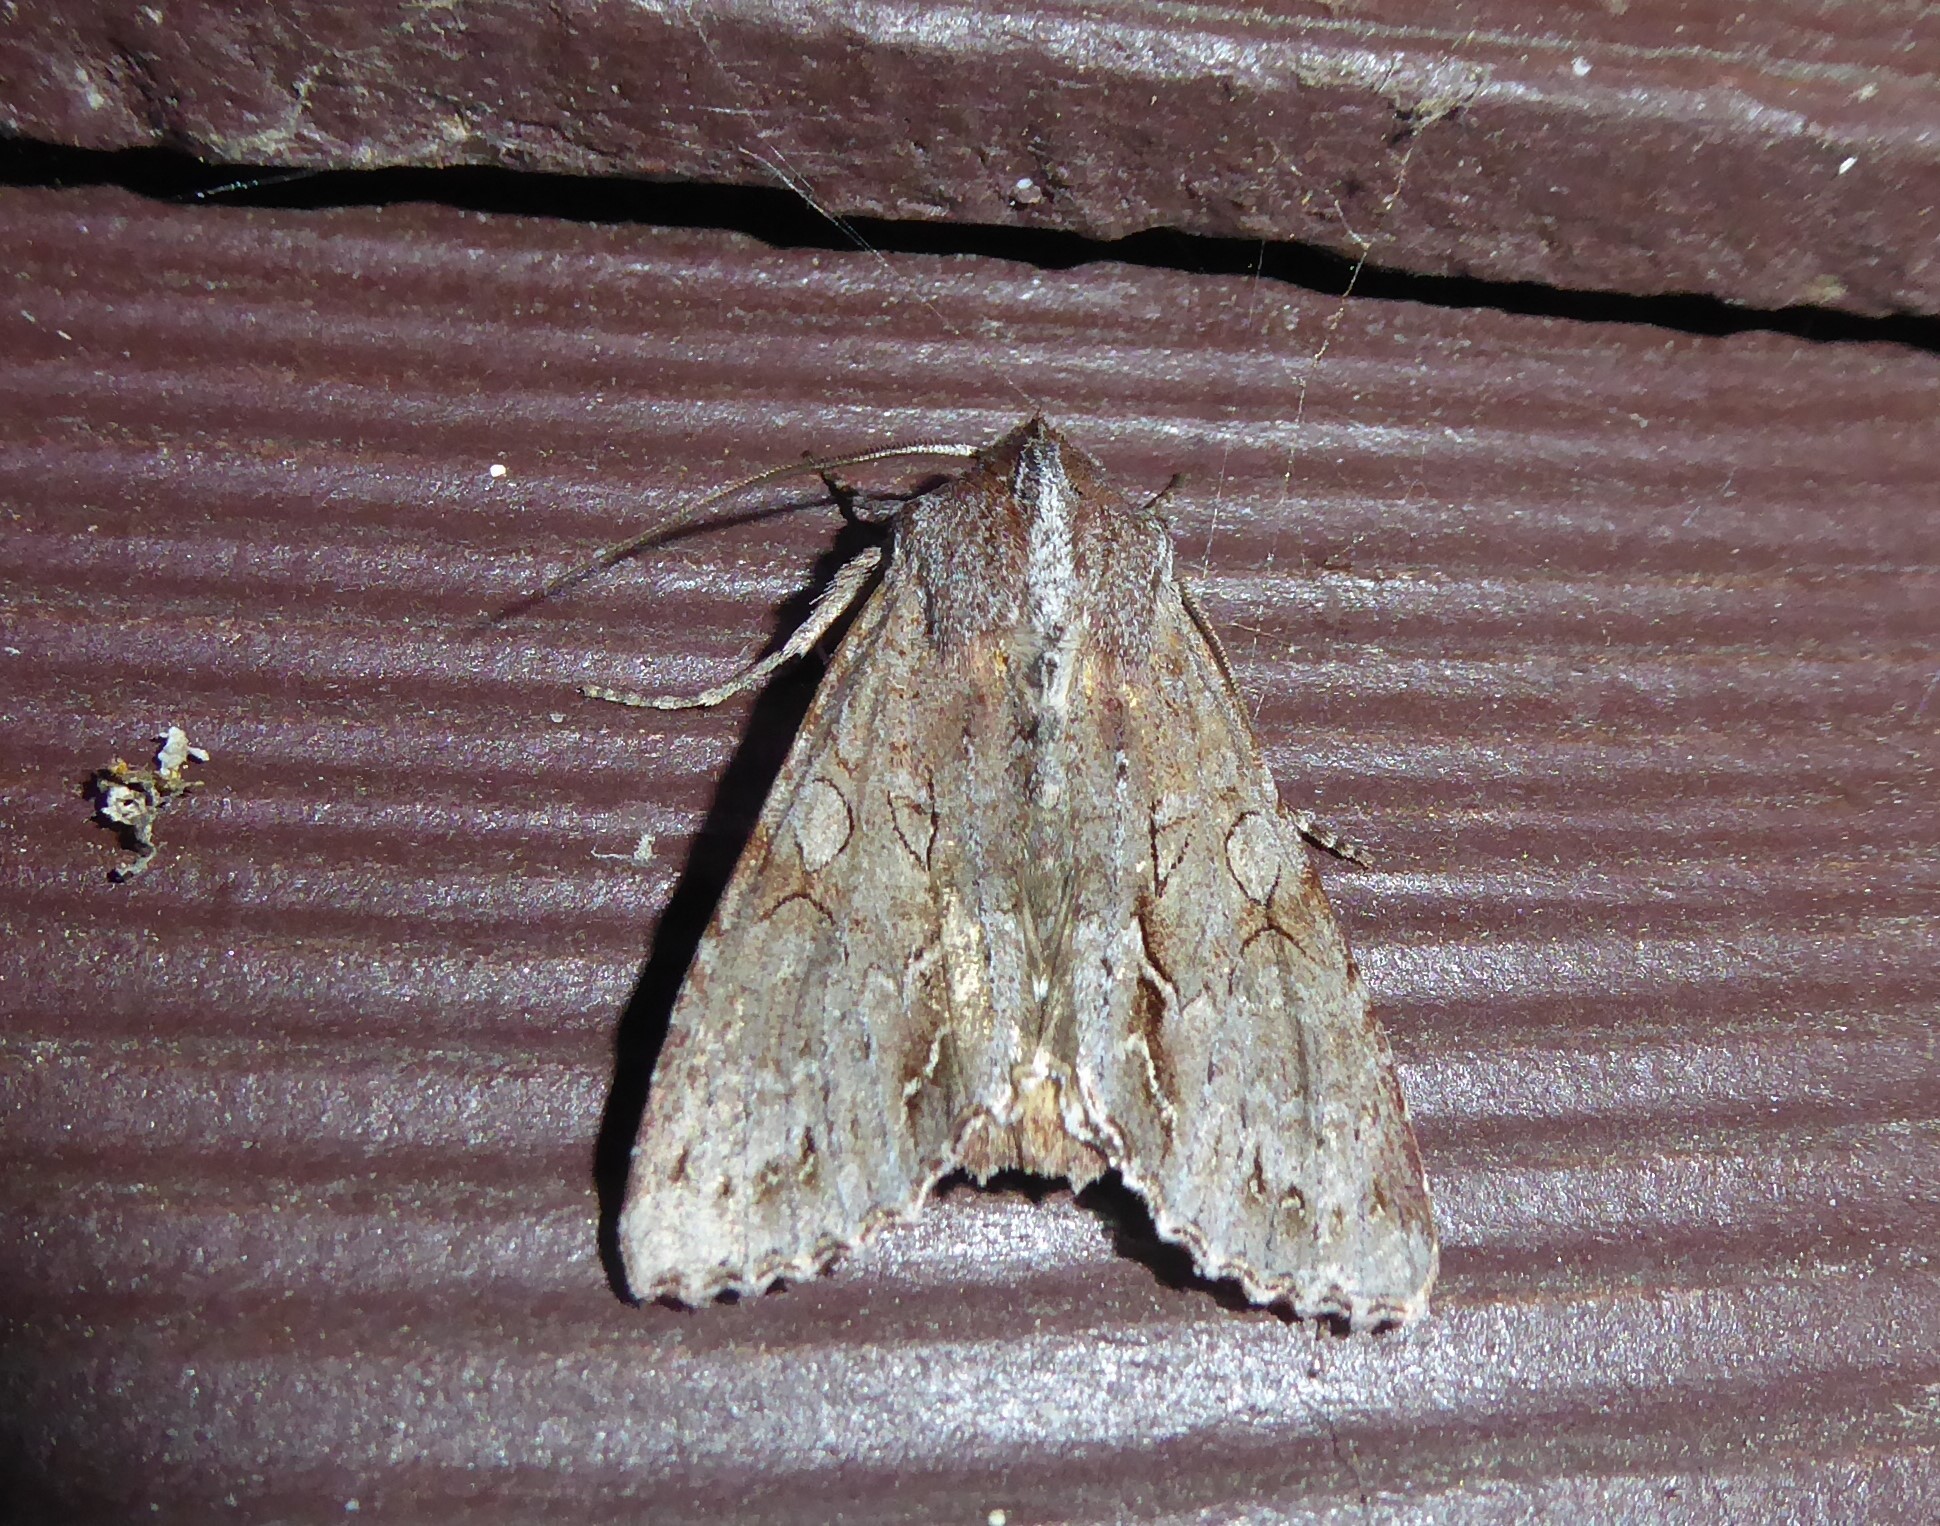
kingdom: Animalia
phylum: Arthropoda
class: Insecta
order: Lepidoptera
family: Noctuidae
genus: Ichneutica
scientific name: Ichneutica
